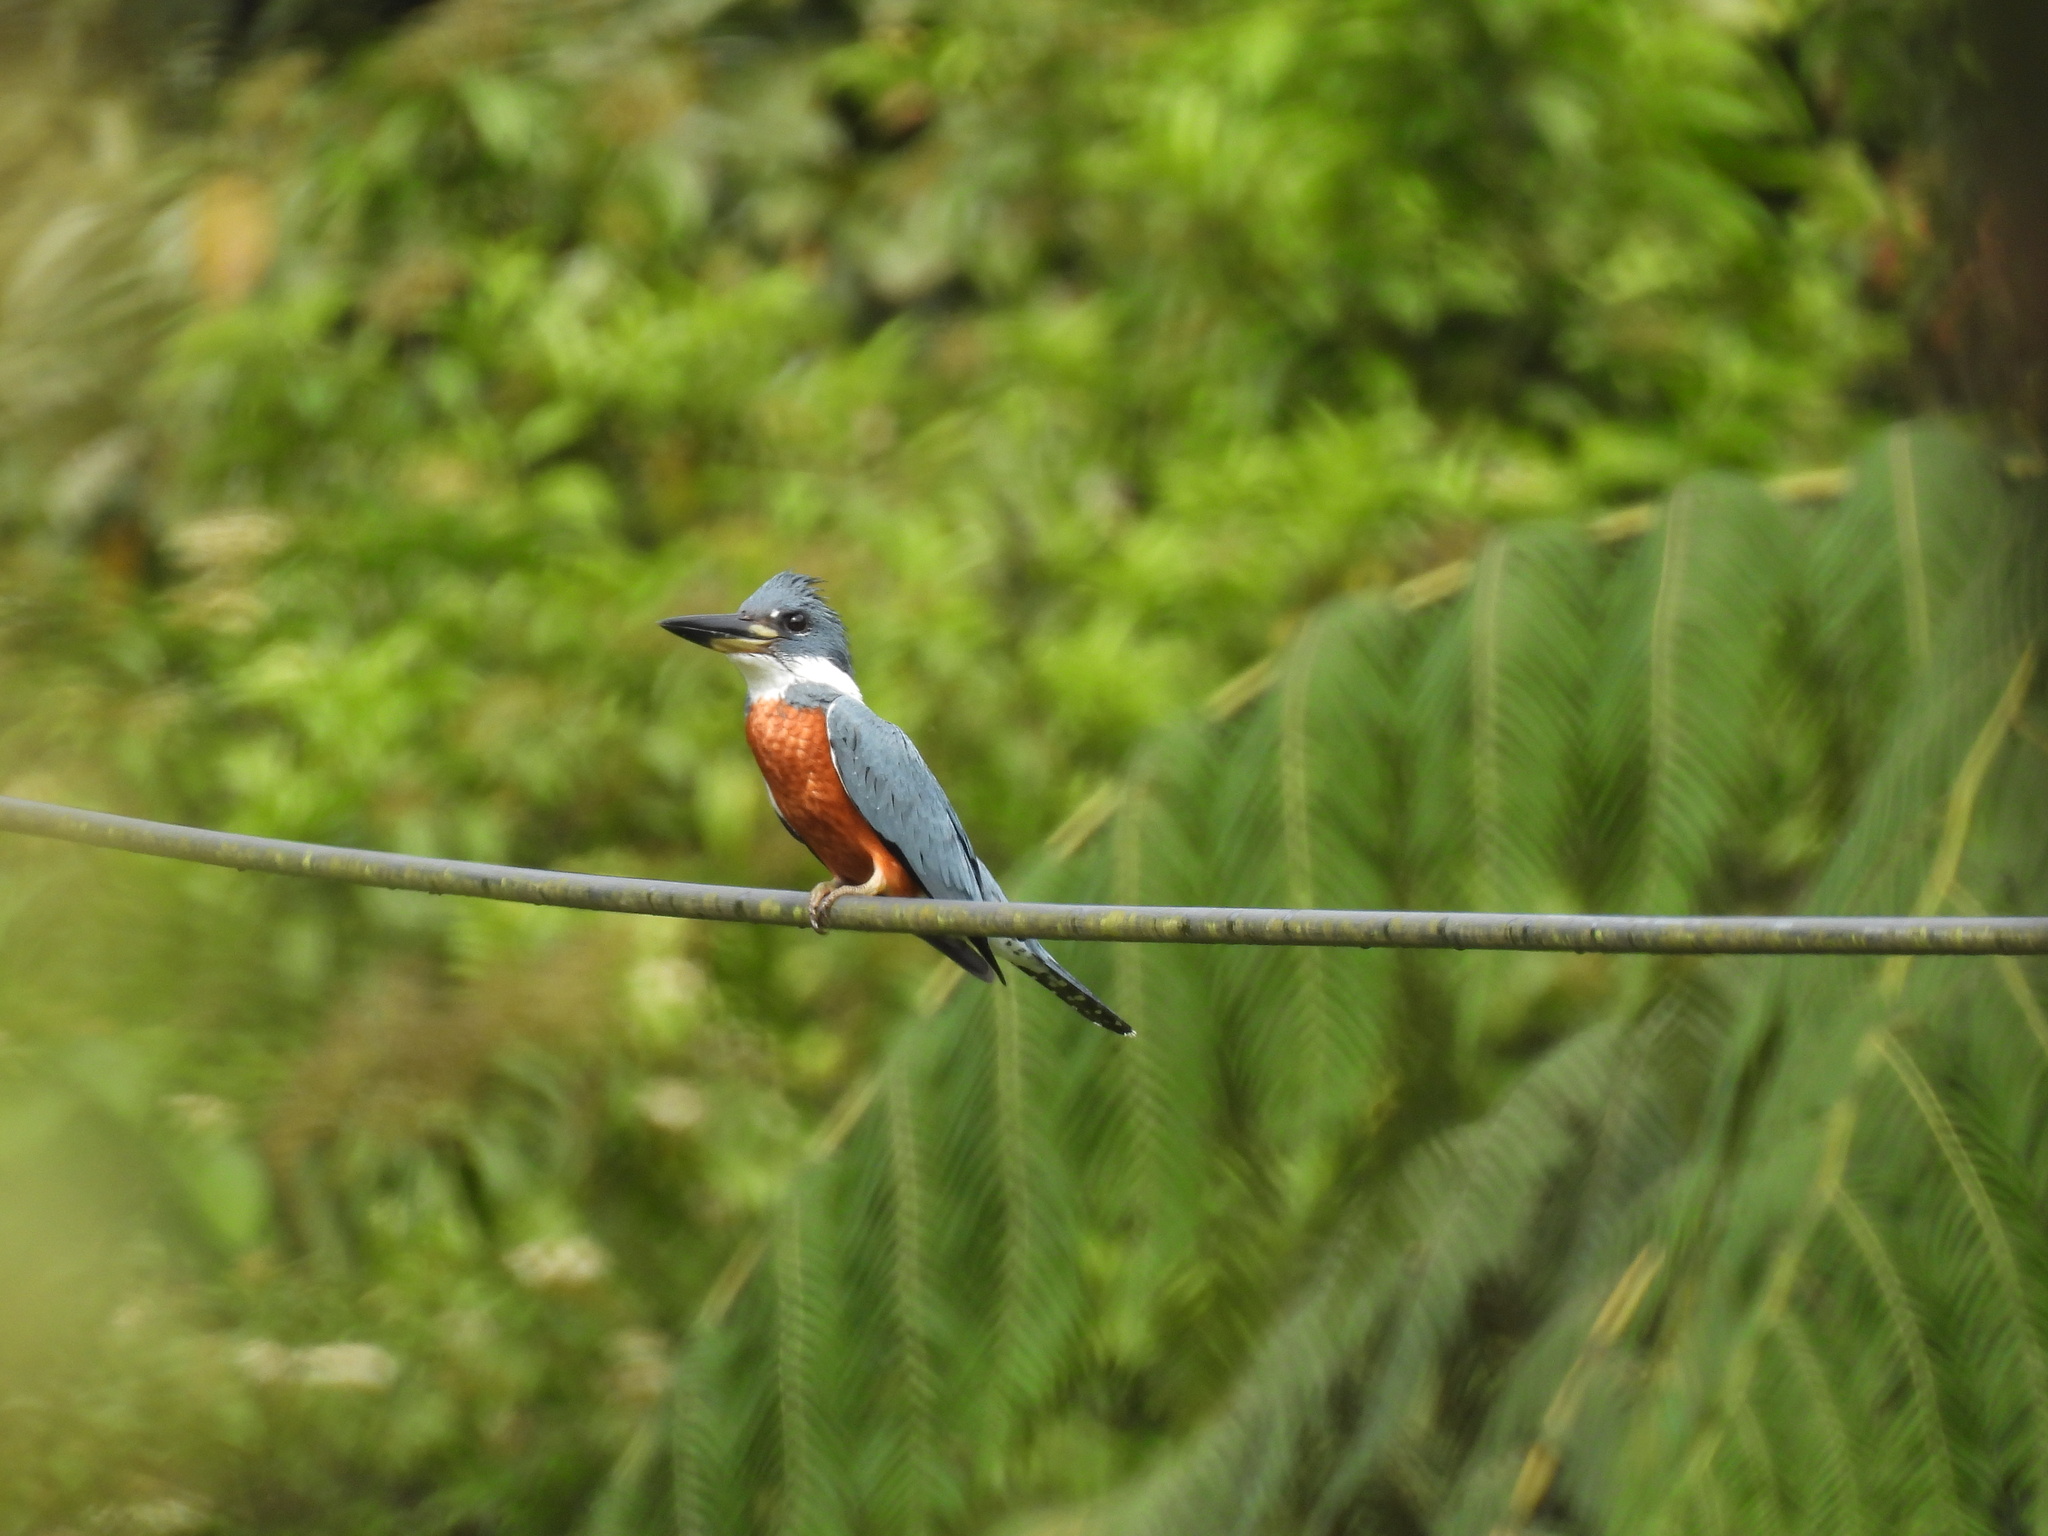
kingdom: Animalia
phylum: Chordata
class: Aves
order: Coraciiformes
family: Alcedinidae
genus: Megaceryle
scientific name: Megaceryle torquata
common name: Ringed kingfisher
